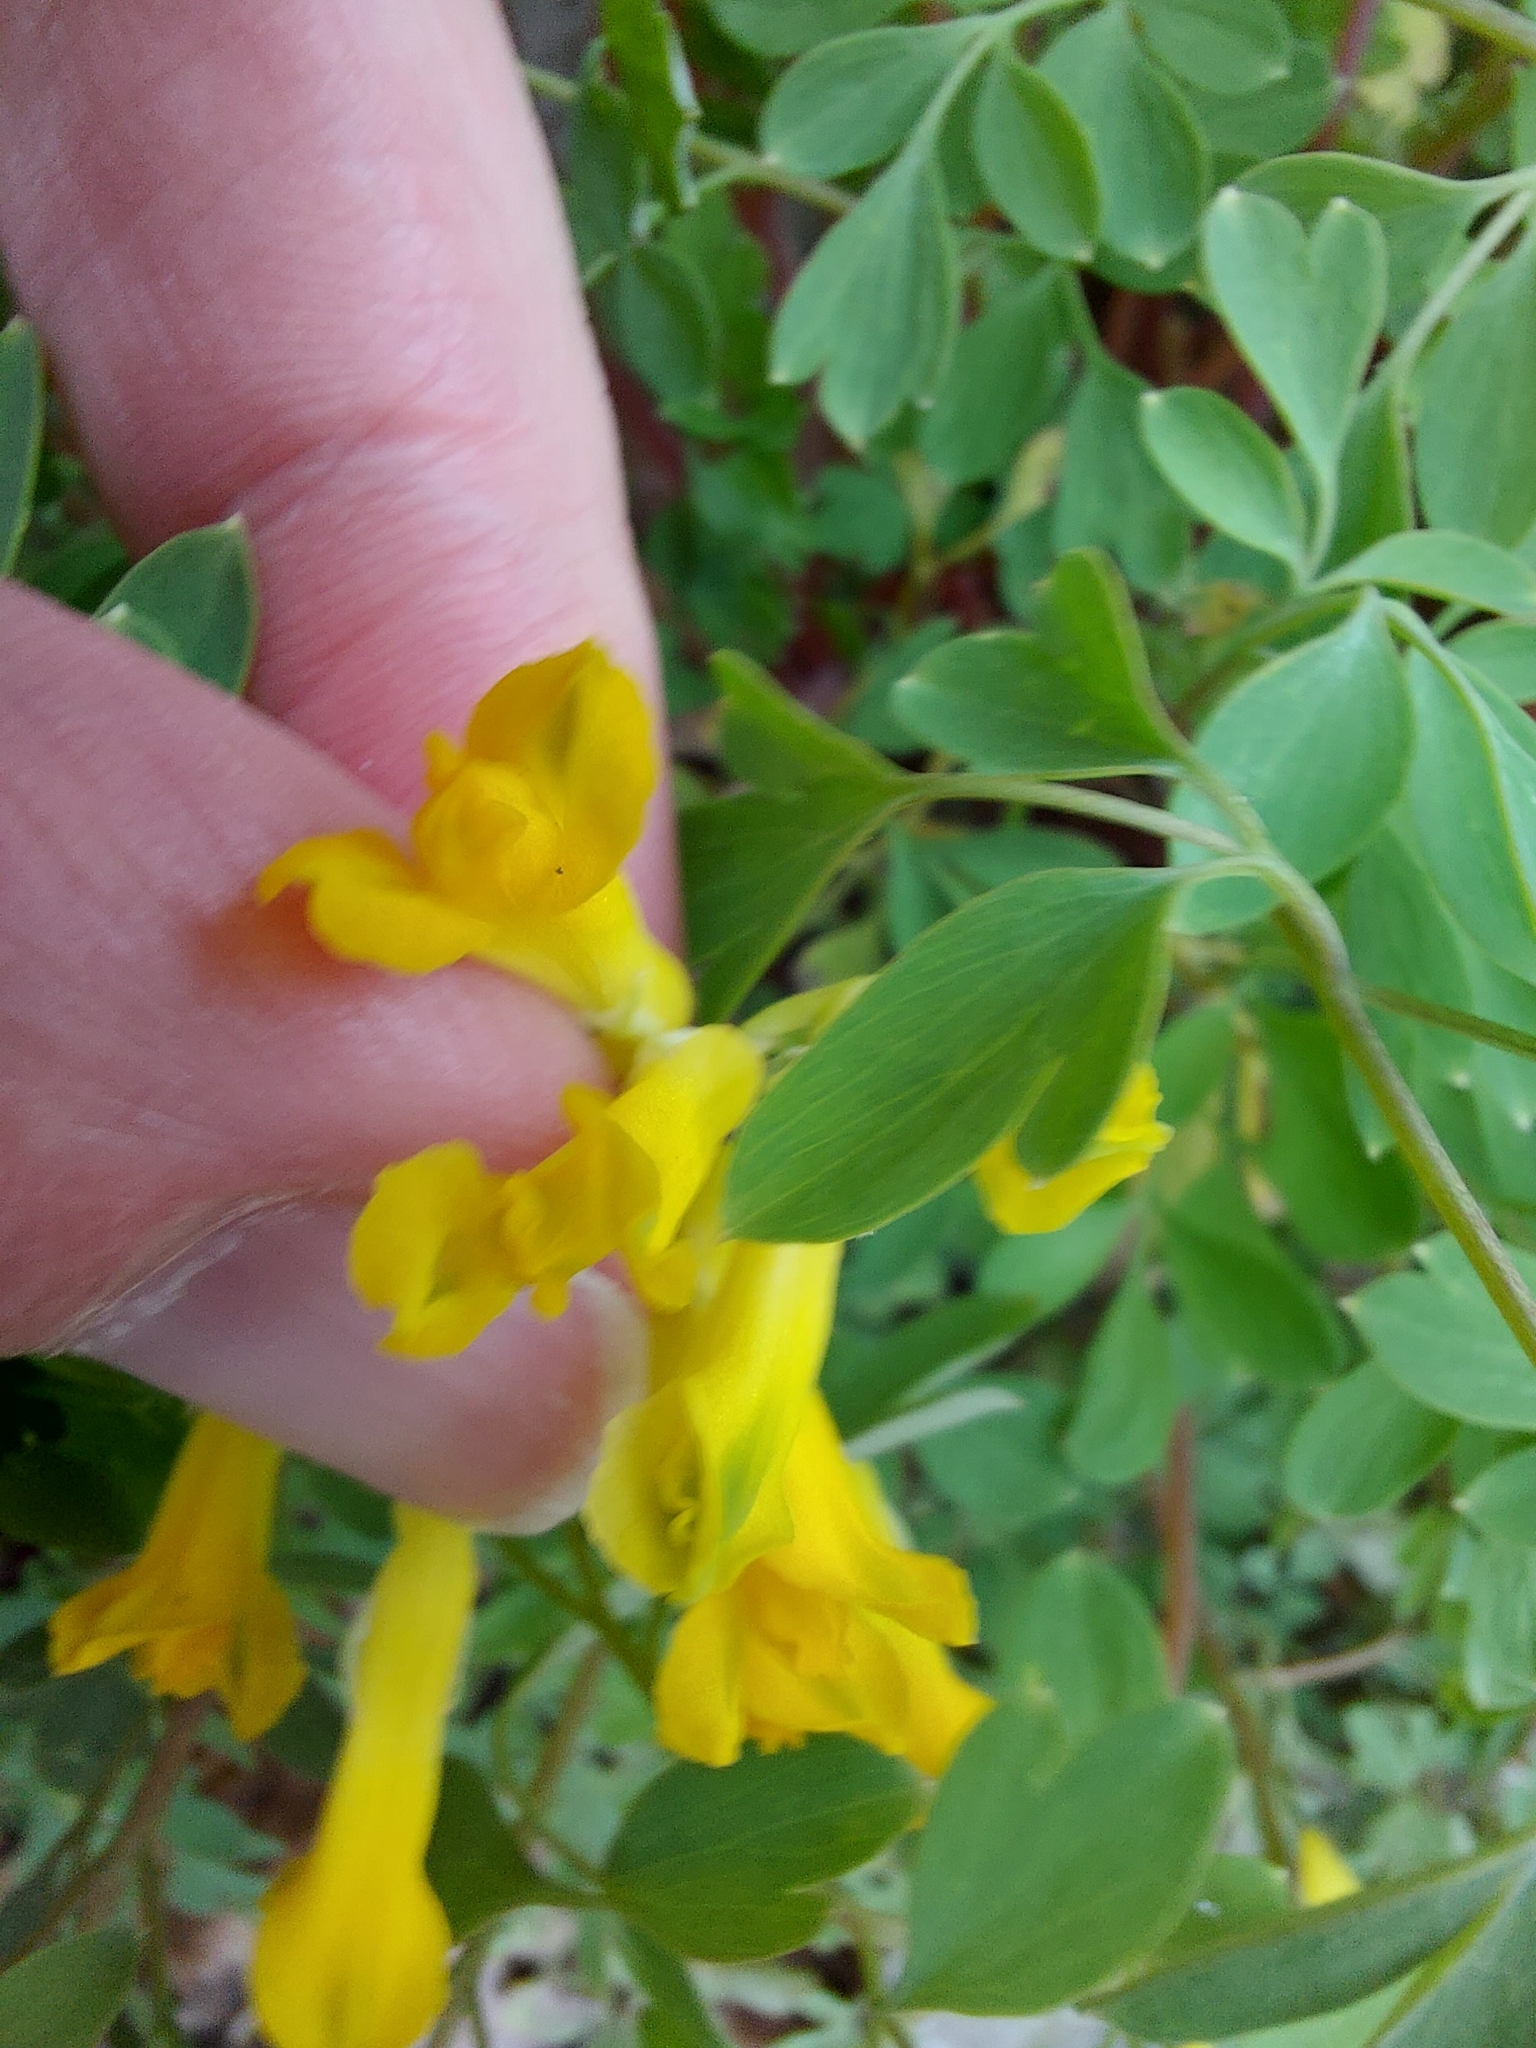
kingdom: Plantae
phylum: Tracheophyta
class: Magnoliopsida
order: Ranunculales
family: Papaveraceae
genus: Pseudofumaria
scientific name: Pseudofumaria lutea
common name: Yellow corydalis
